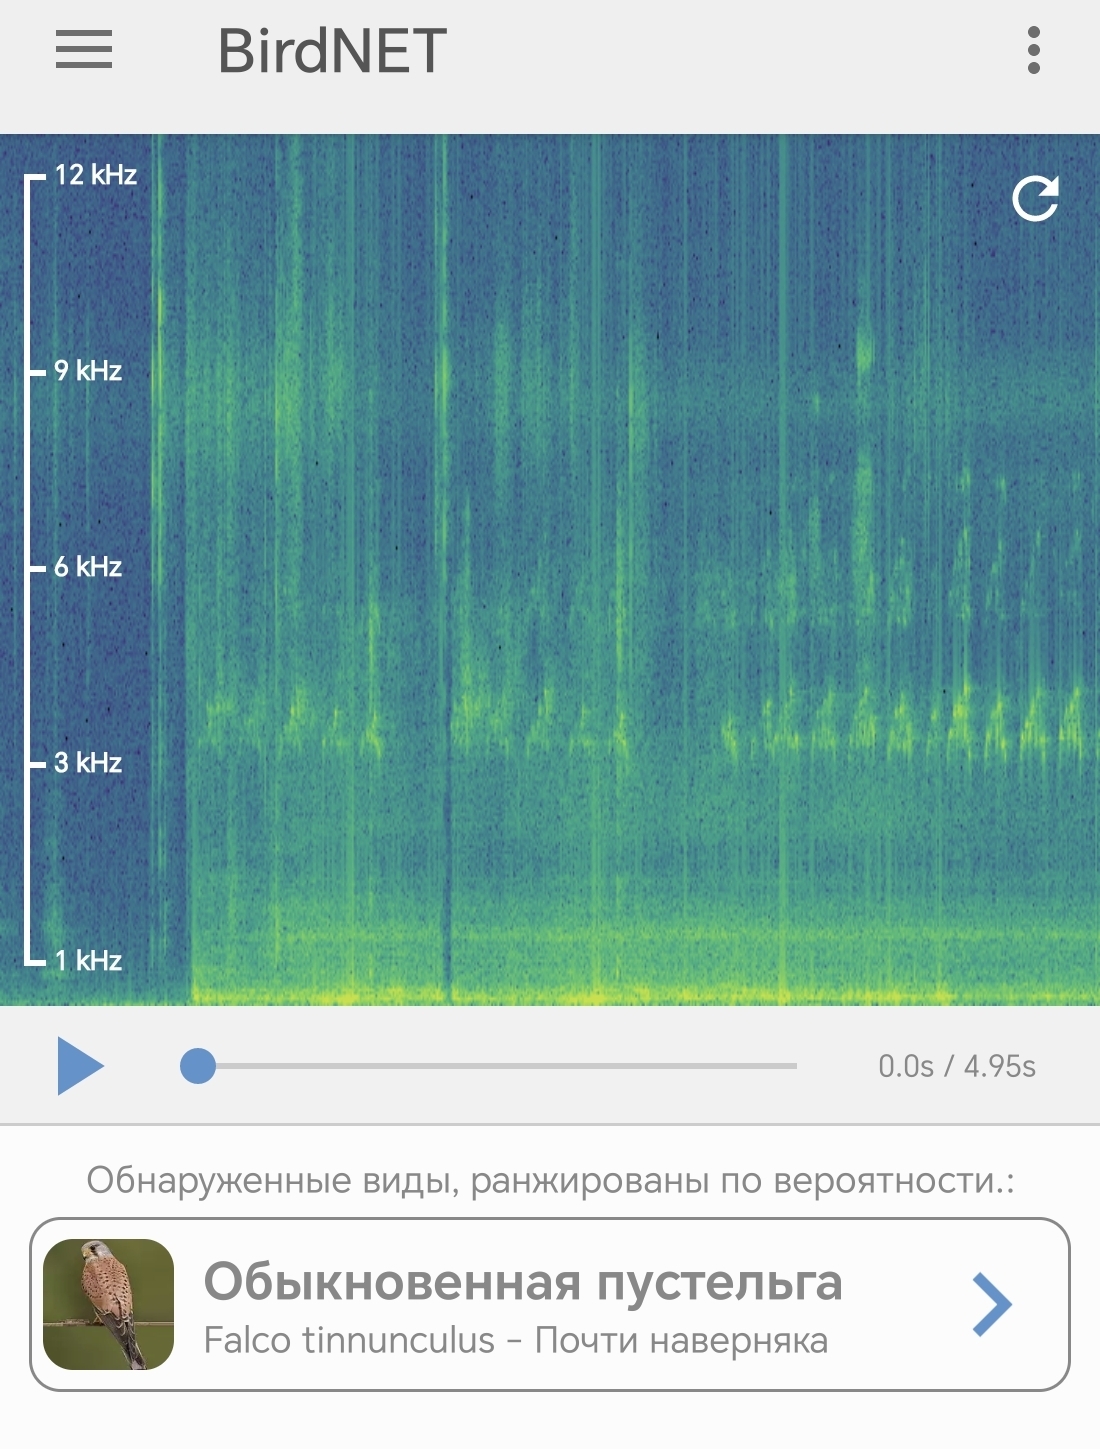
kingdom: Animalia
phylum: Chordata
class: Aves
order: Falconiformes
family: Falconidae
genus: Falco
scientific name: Falco tinnunculus
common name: Common kestrel
